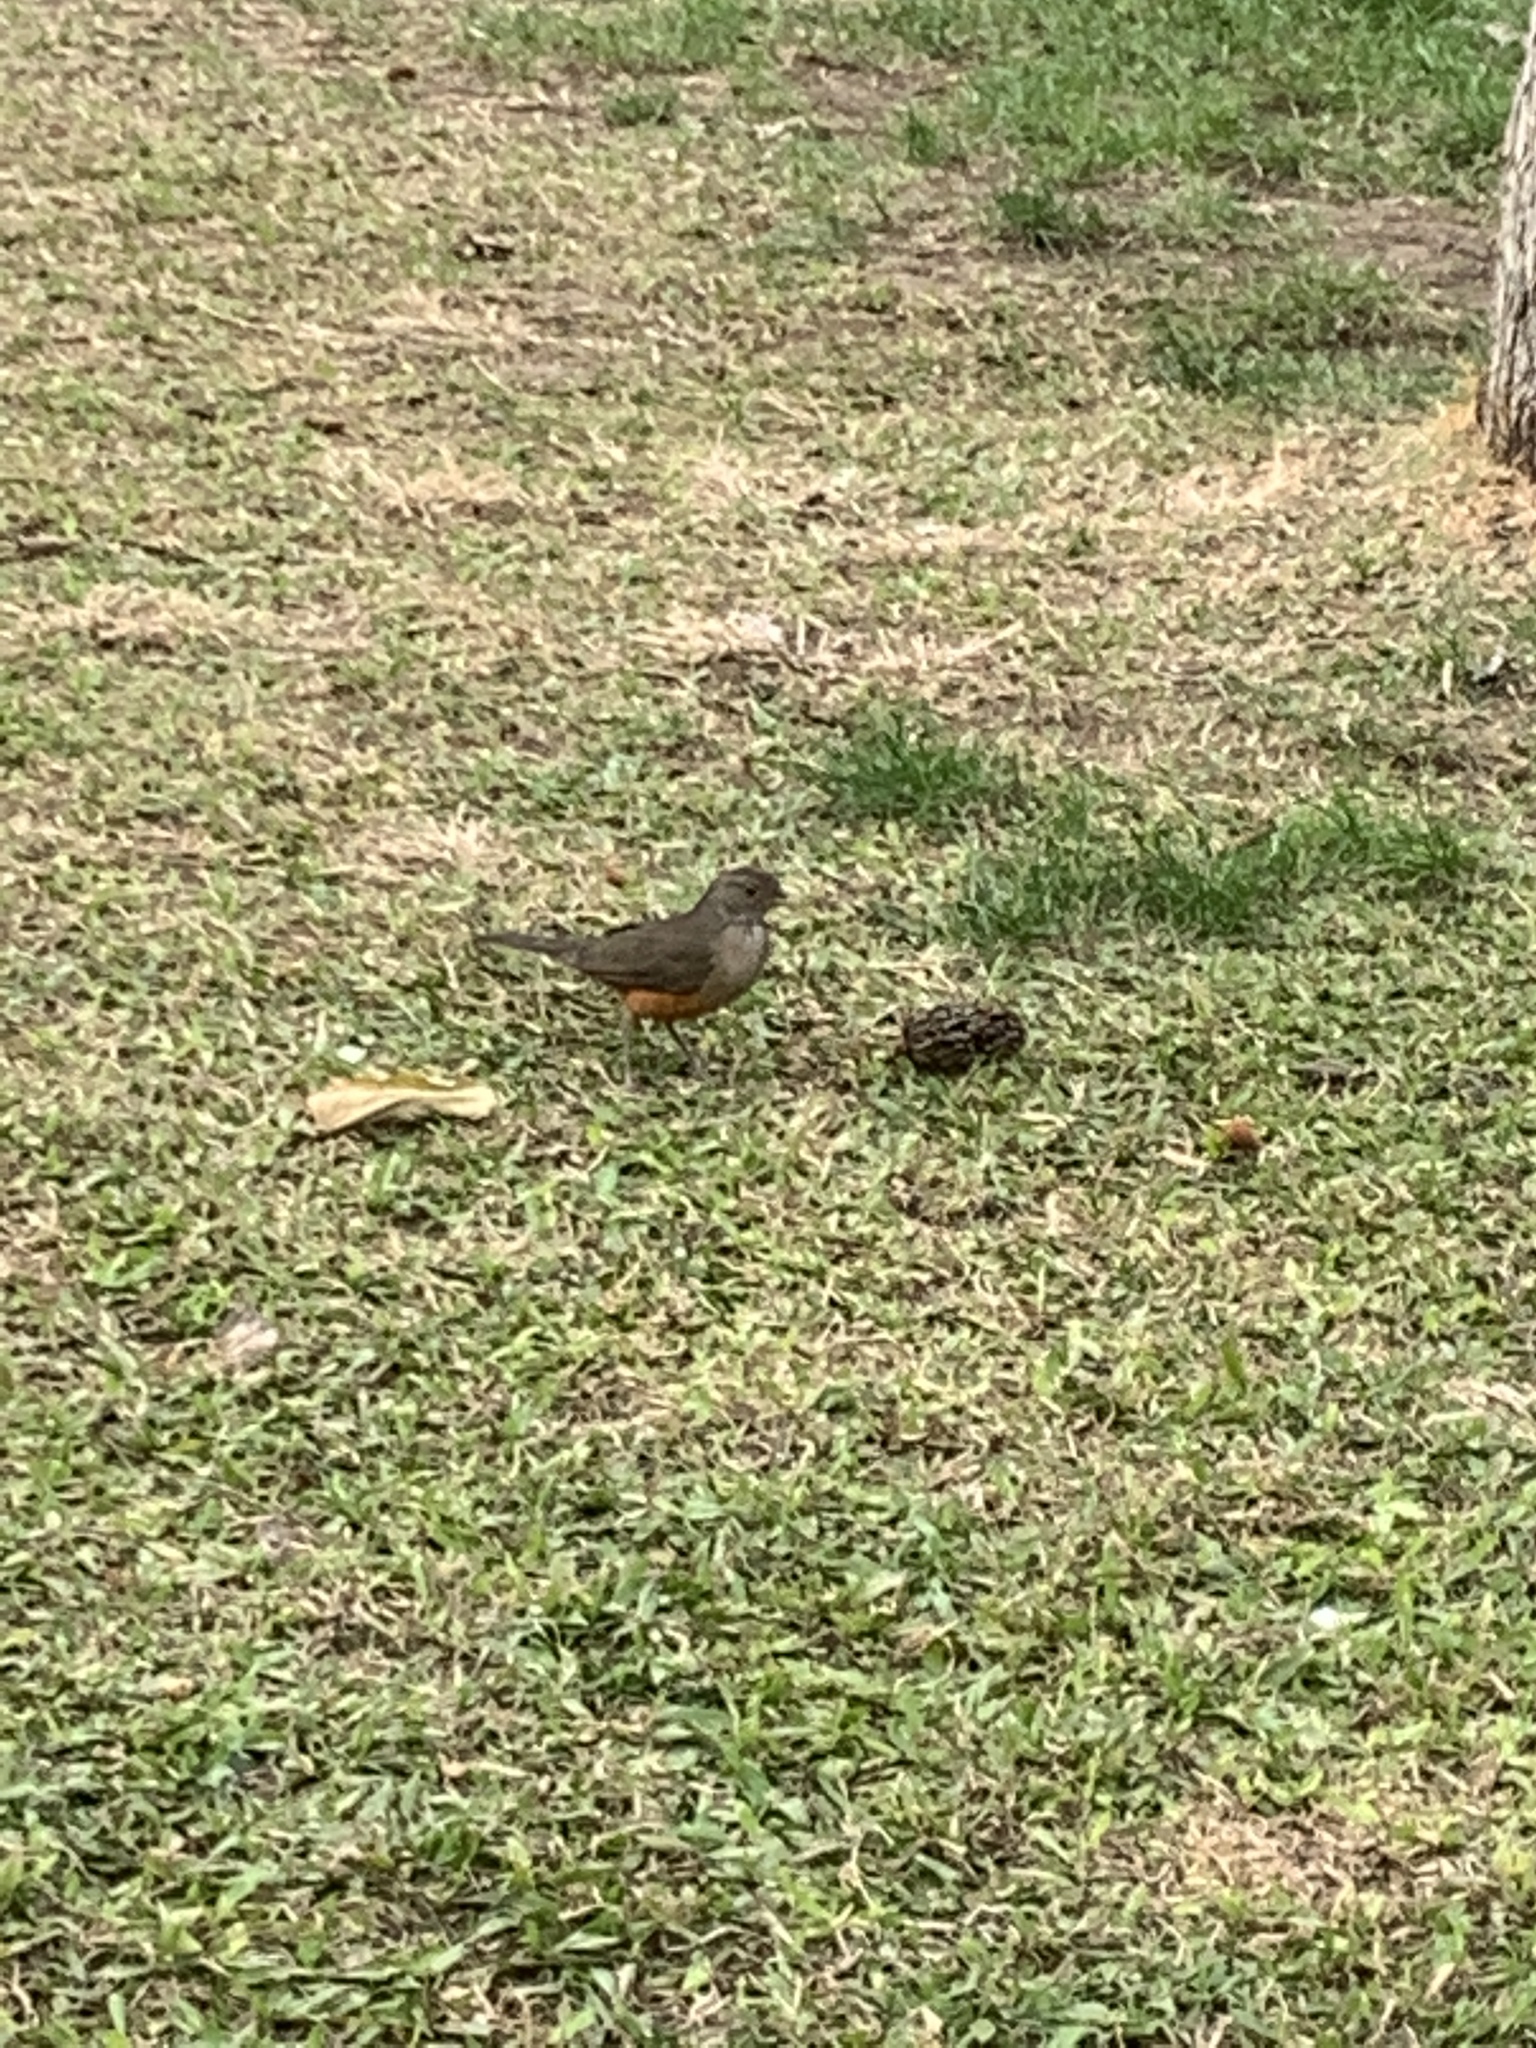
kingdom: Animalia
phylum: Chordata
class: Aves
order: Passeriformes
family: Turdidae
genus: Turdus
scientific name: Turdus rufiventris
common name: Rufous-bellied thrush
